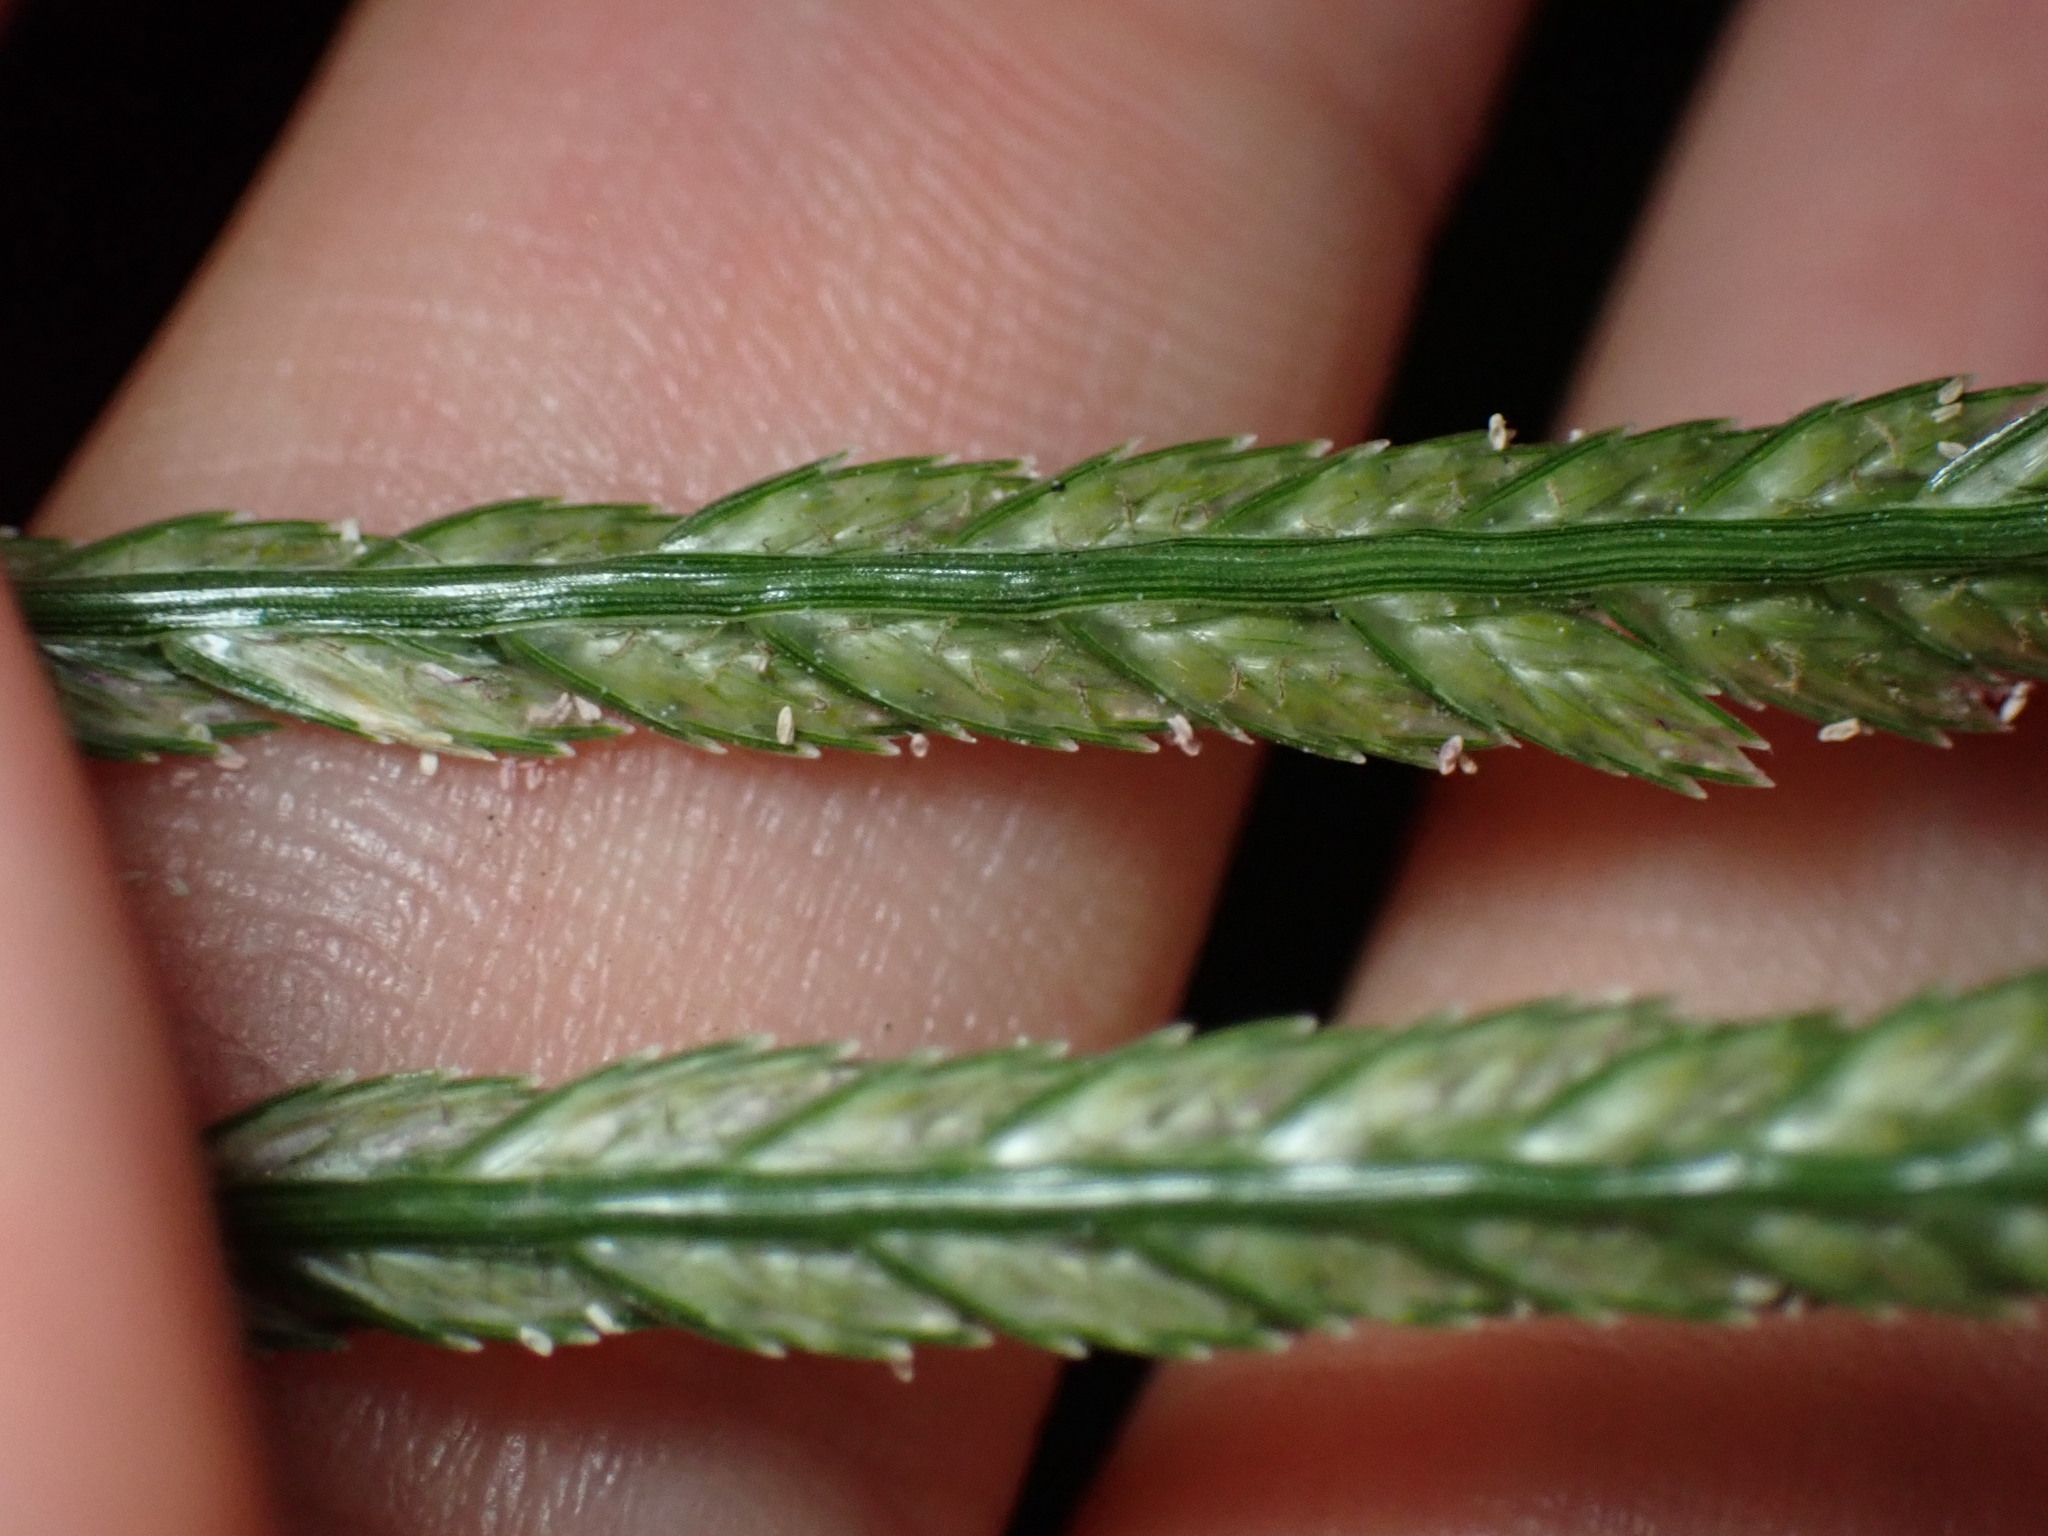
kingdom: Plantae
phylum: Tracheophyta
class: Liliopsida
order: Poales
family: Poaceae
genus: Eleusine
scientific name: Eleusine indica
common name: Yard-grass
